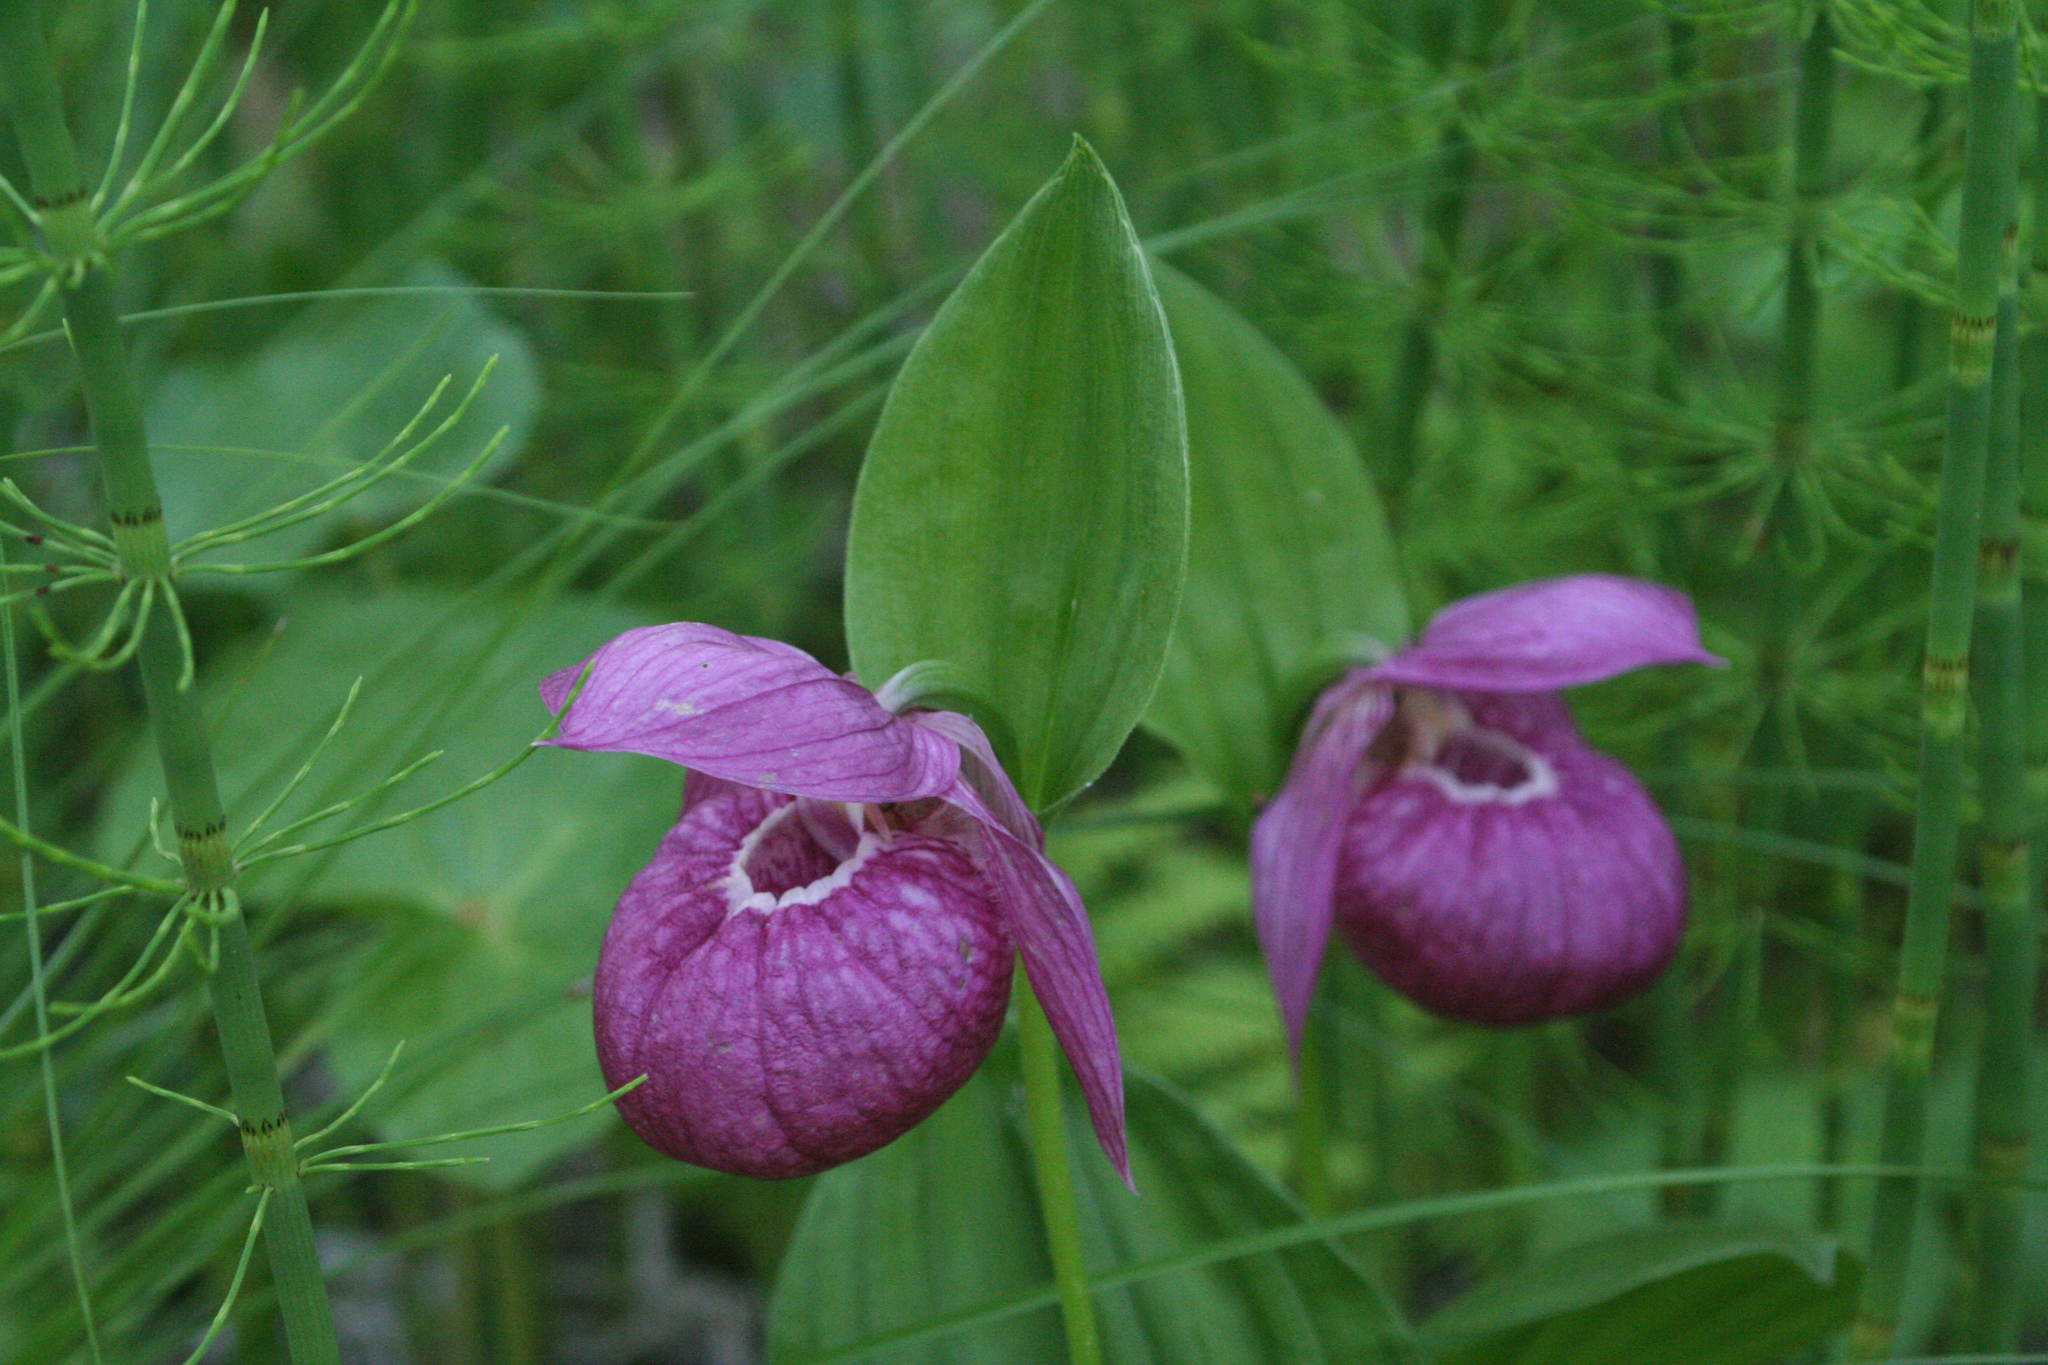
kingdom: Plantae
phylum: Tracheophyta
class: Liliopsida
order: Asparagales
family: Orchidaceae
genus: Cypripedium
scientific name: Cypripedium macranthos
